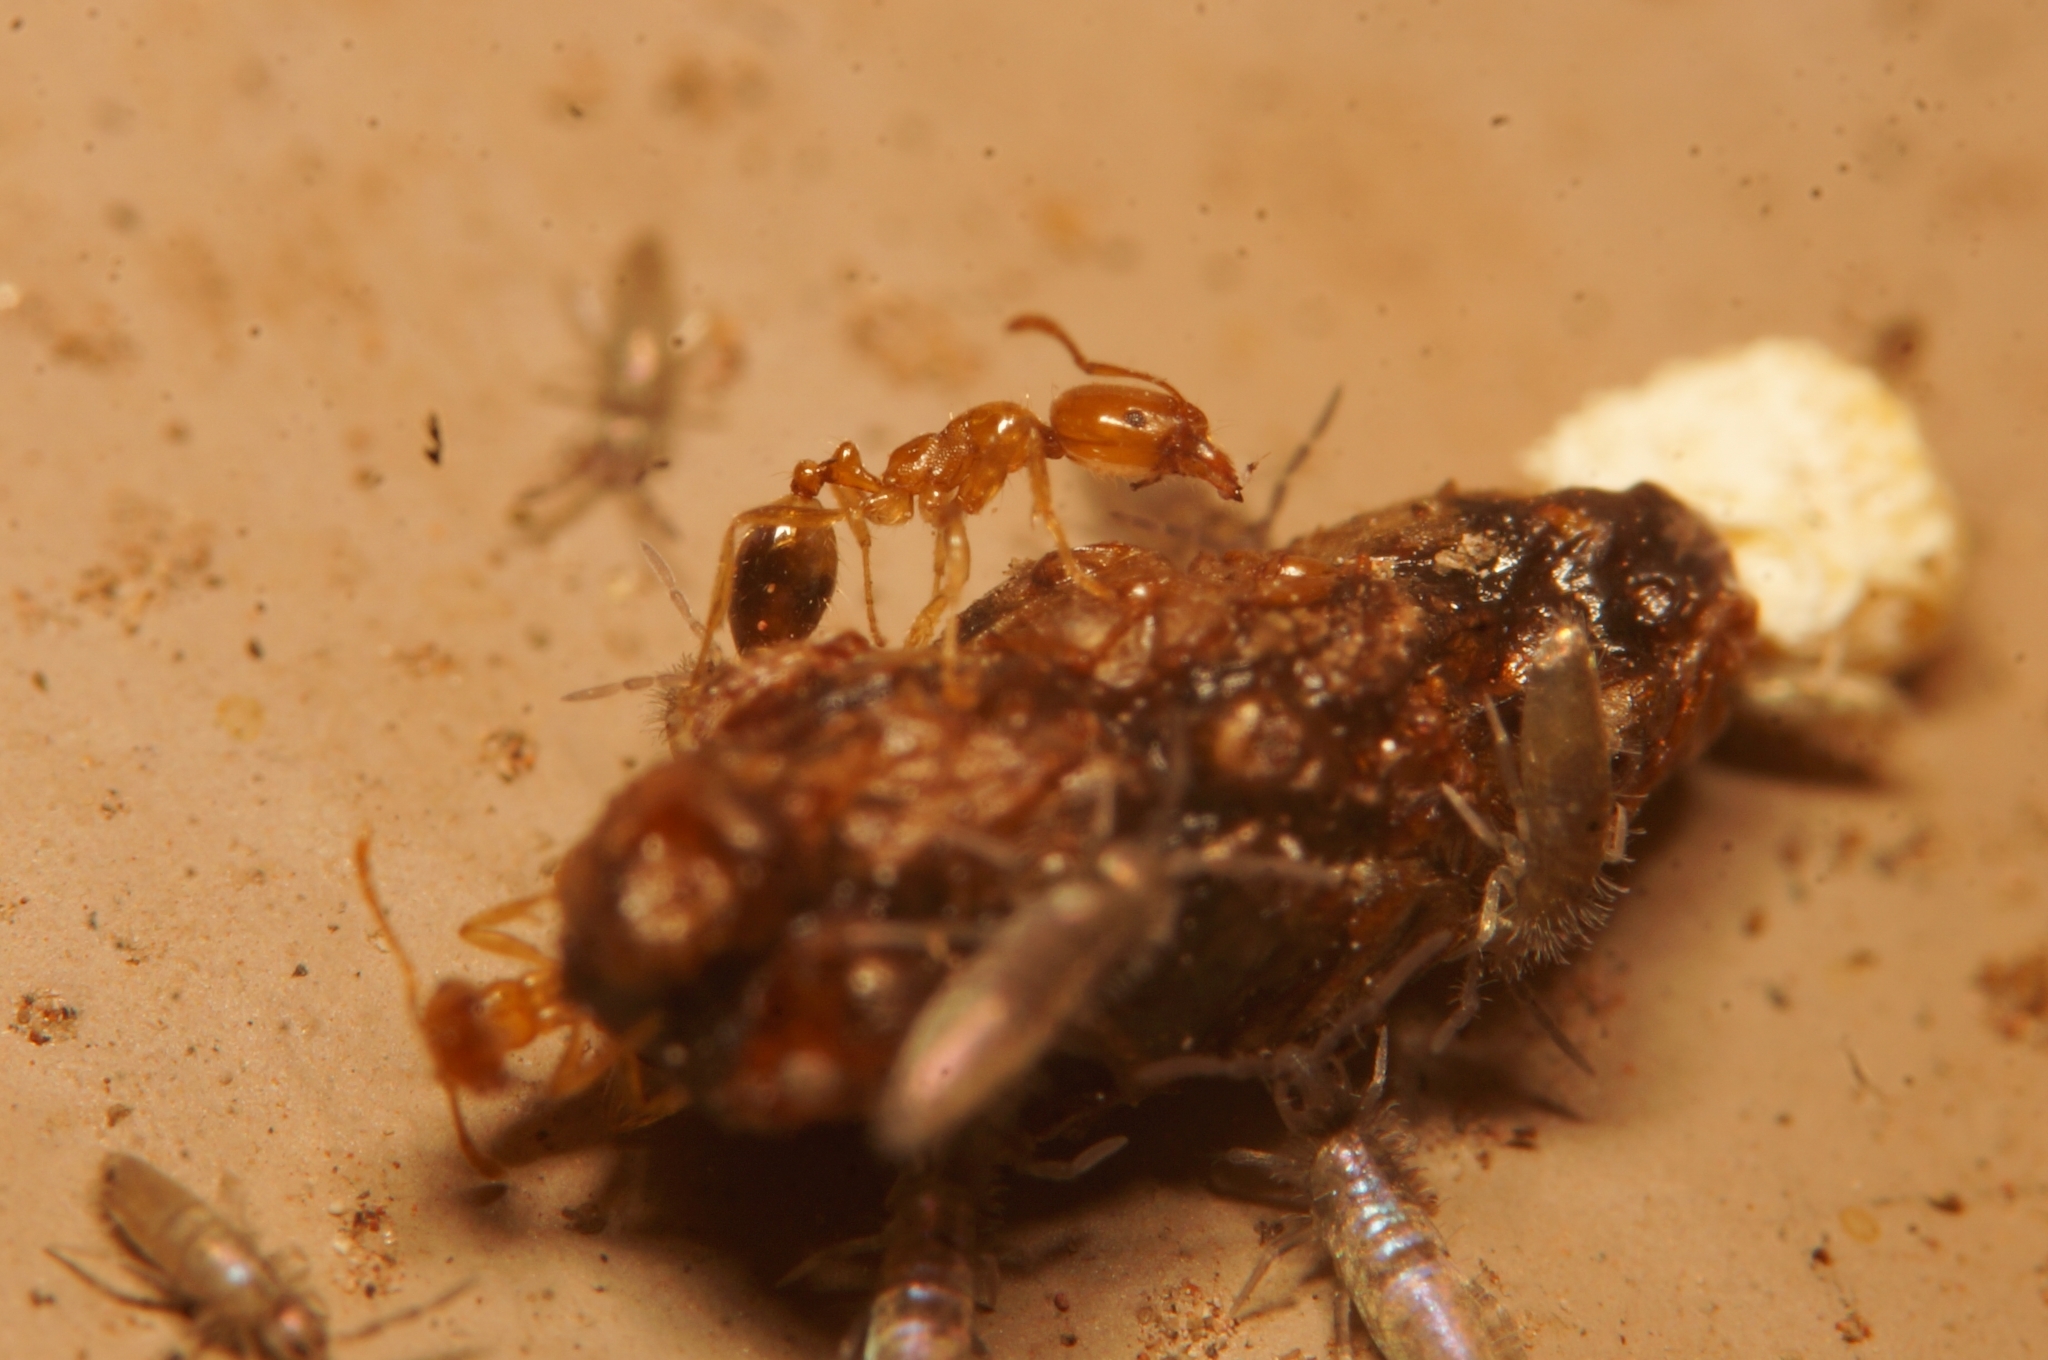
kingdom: Animalia
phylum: Arthropoda
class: Insecta
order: Hymenoptera
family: Formicidae
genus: Monomorium
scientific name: Monomorium destructor
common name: Destructive trailing ant
